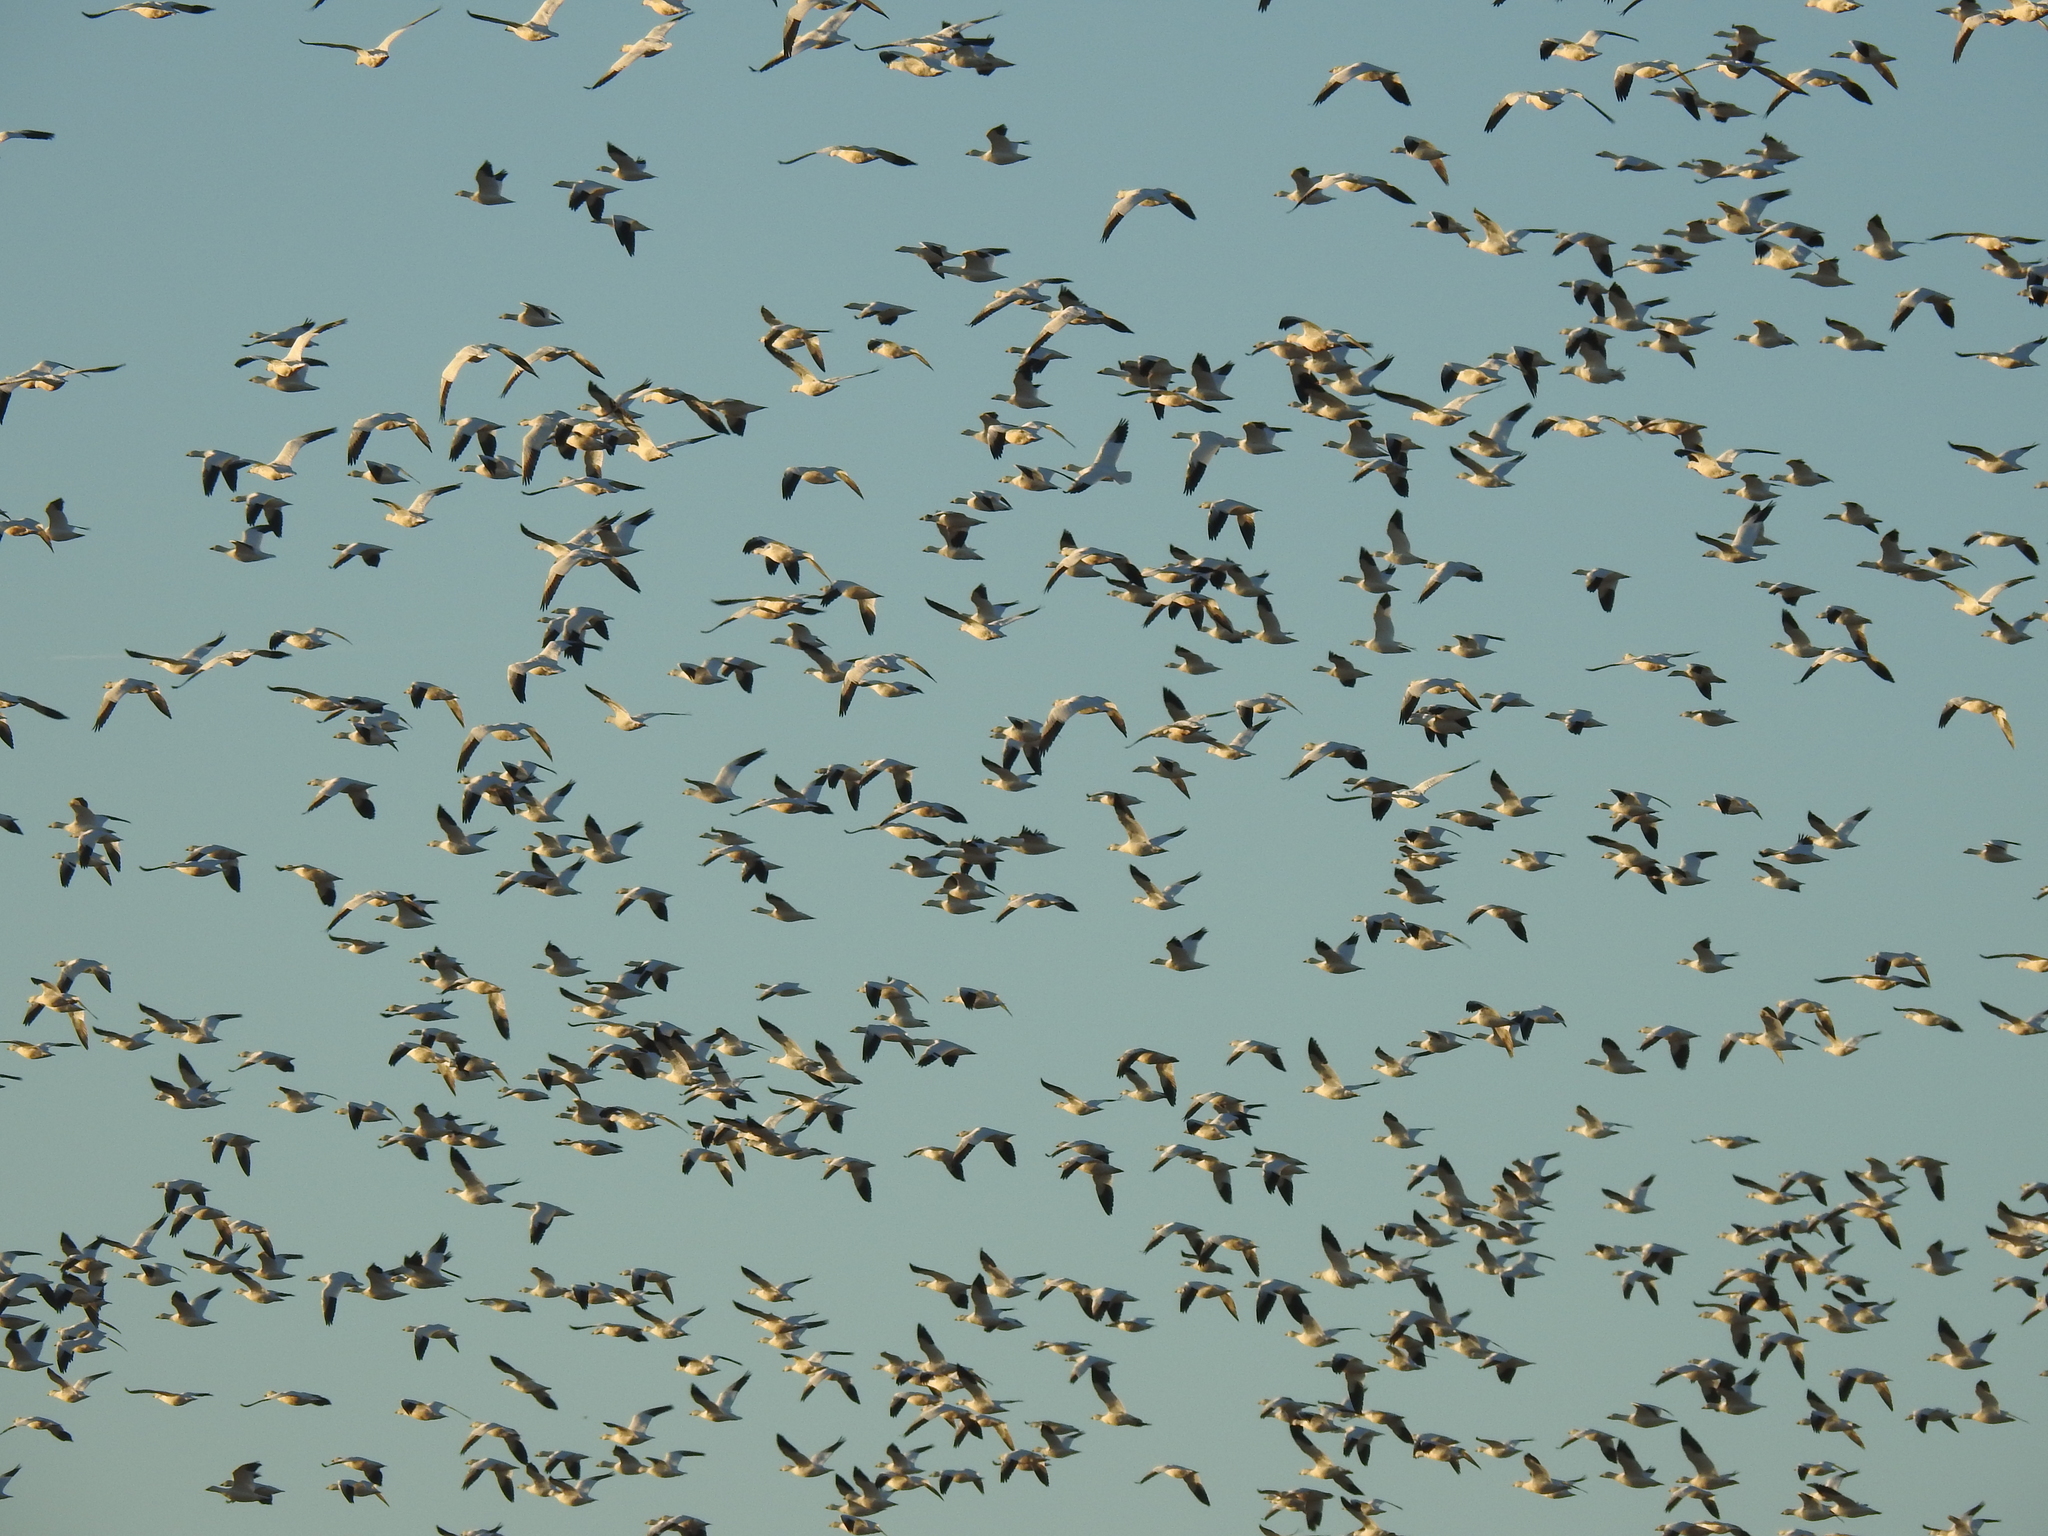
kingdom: Animalia
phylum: Chordata
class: Aves
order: Anseriformes
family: Anatidae
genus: Anser
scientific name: Anser caerulescens
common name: Snow goose
